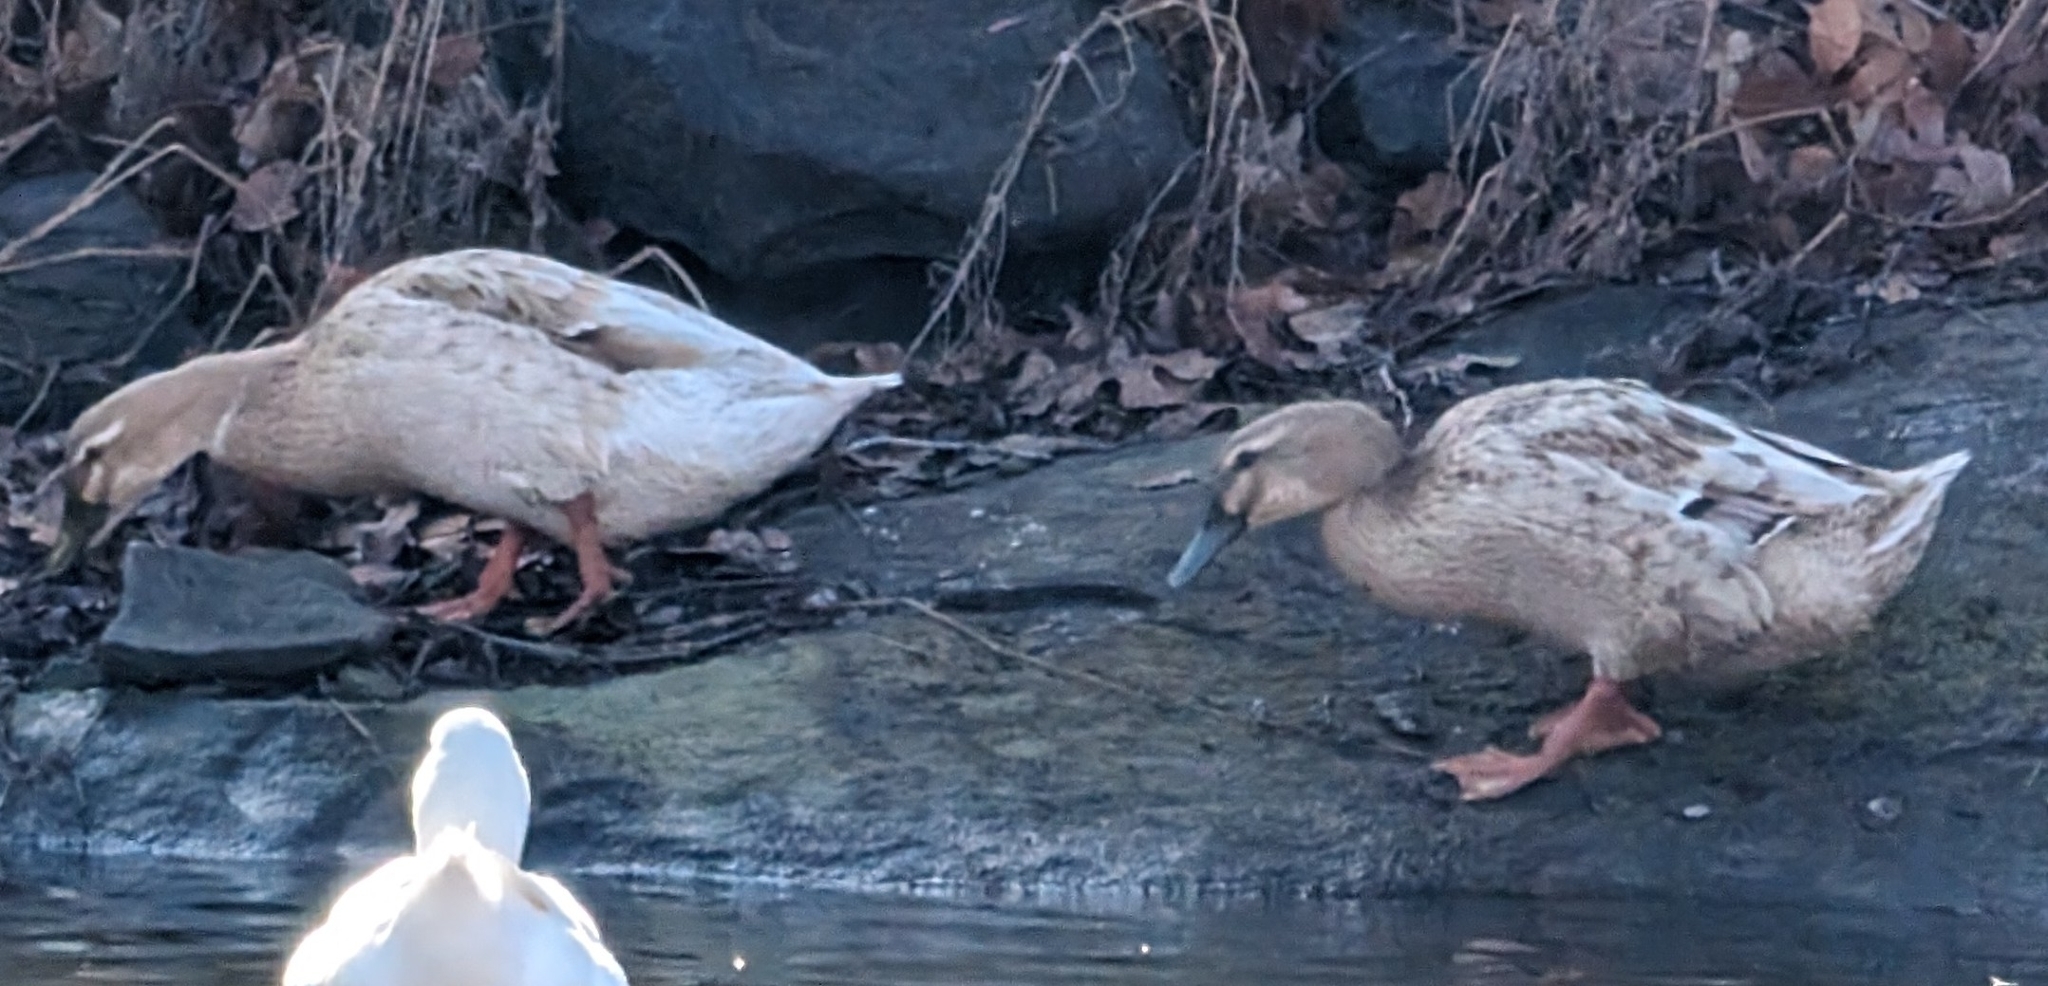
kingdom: Animalia
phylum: Chordata
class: Aves
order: Anseriformes
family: Anatidae
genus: Anas
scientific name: Anas platyrhynchos
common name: Mallard
